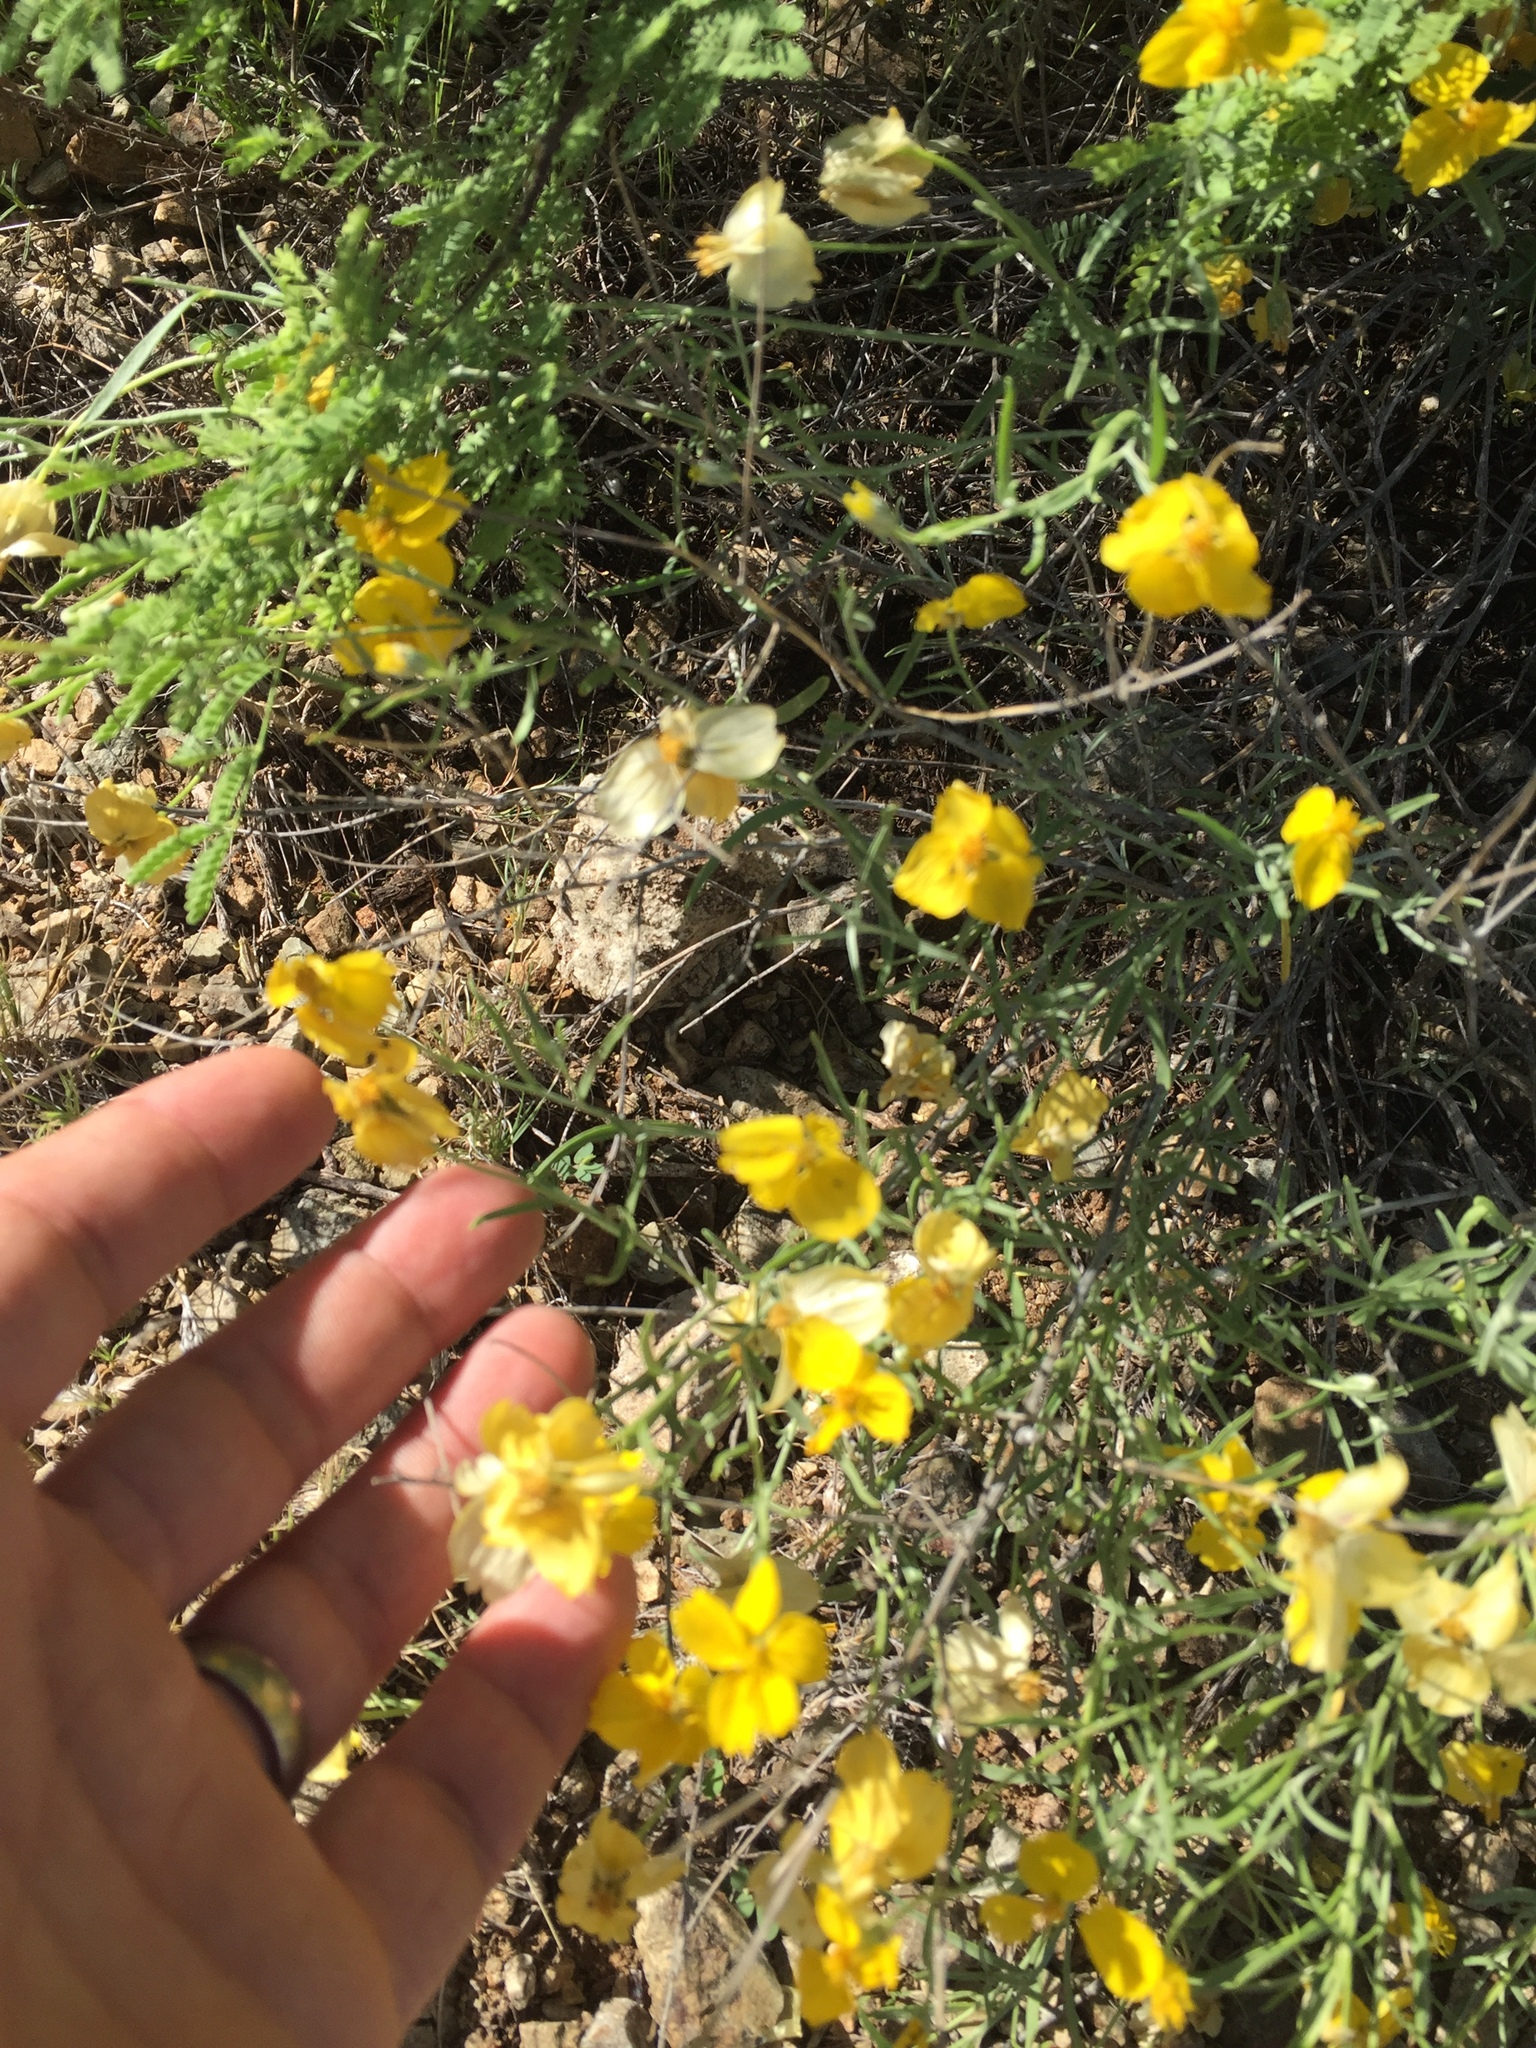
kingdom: Plantae
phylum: Tracheophyta
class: Magnoliopsida
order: Asterales
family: Asteraceae
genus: Psilostrophe
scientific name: Psilostrophe cooperi
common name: White-stem paper-flower
